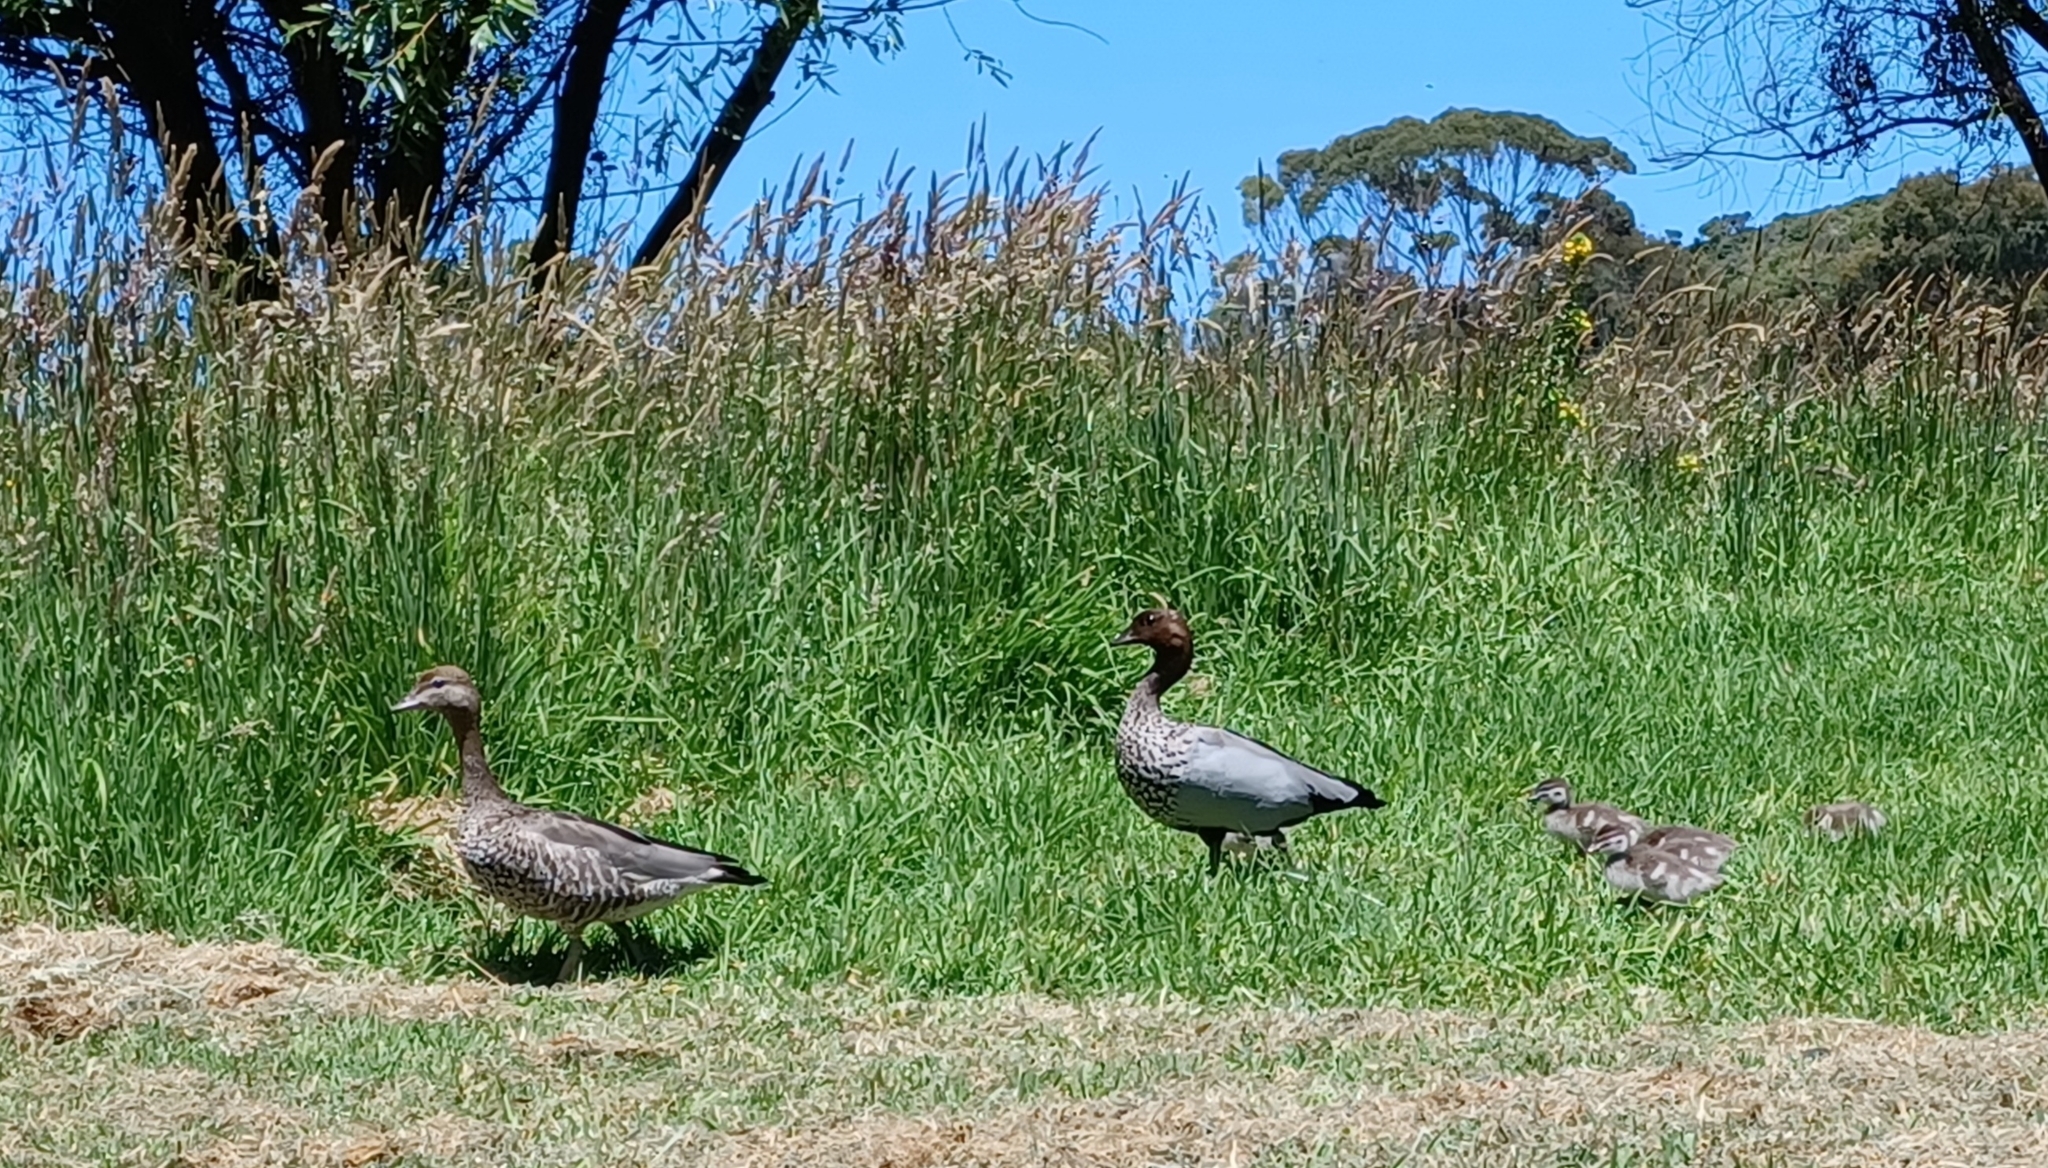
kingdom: Animalia
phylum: Chordata
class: Aves
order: Anseriformes
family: Anatidae
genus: Chenonetta
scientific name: Chenonetta jubata
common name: Maned duck
